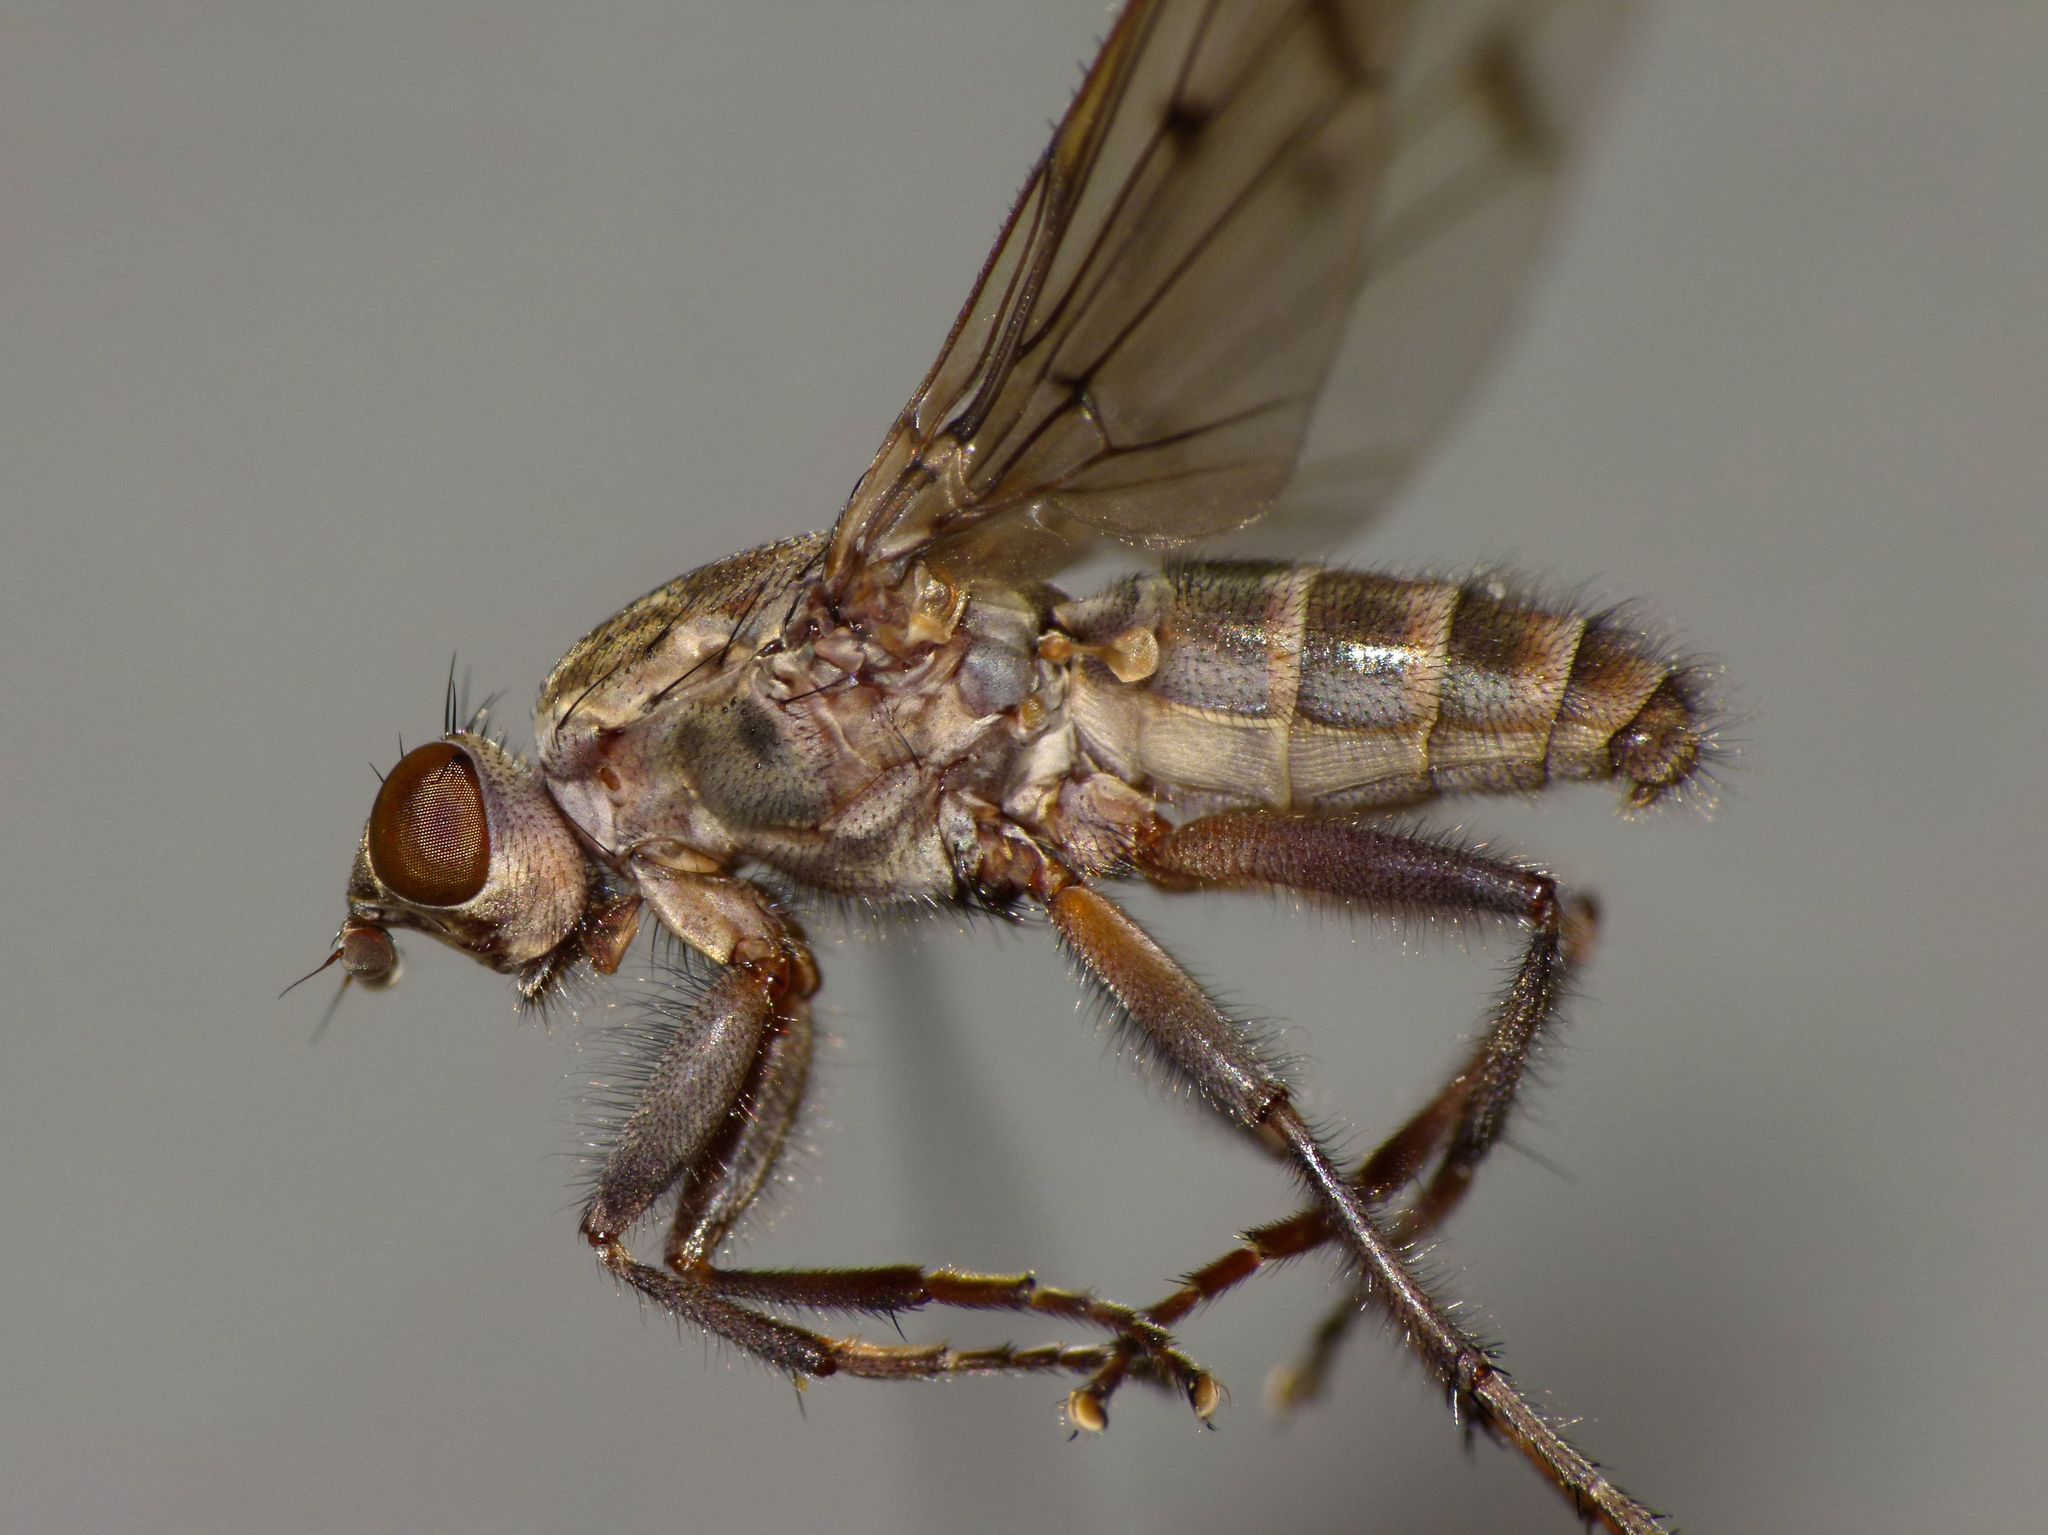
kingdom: Animalia
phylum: Arthropoda
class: Insecta
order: Diptera
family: Helcomyzidae
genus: Maorimyia
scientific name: Maorimyia bipunctata
